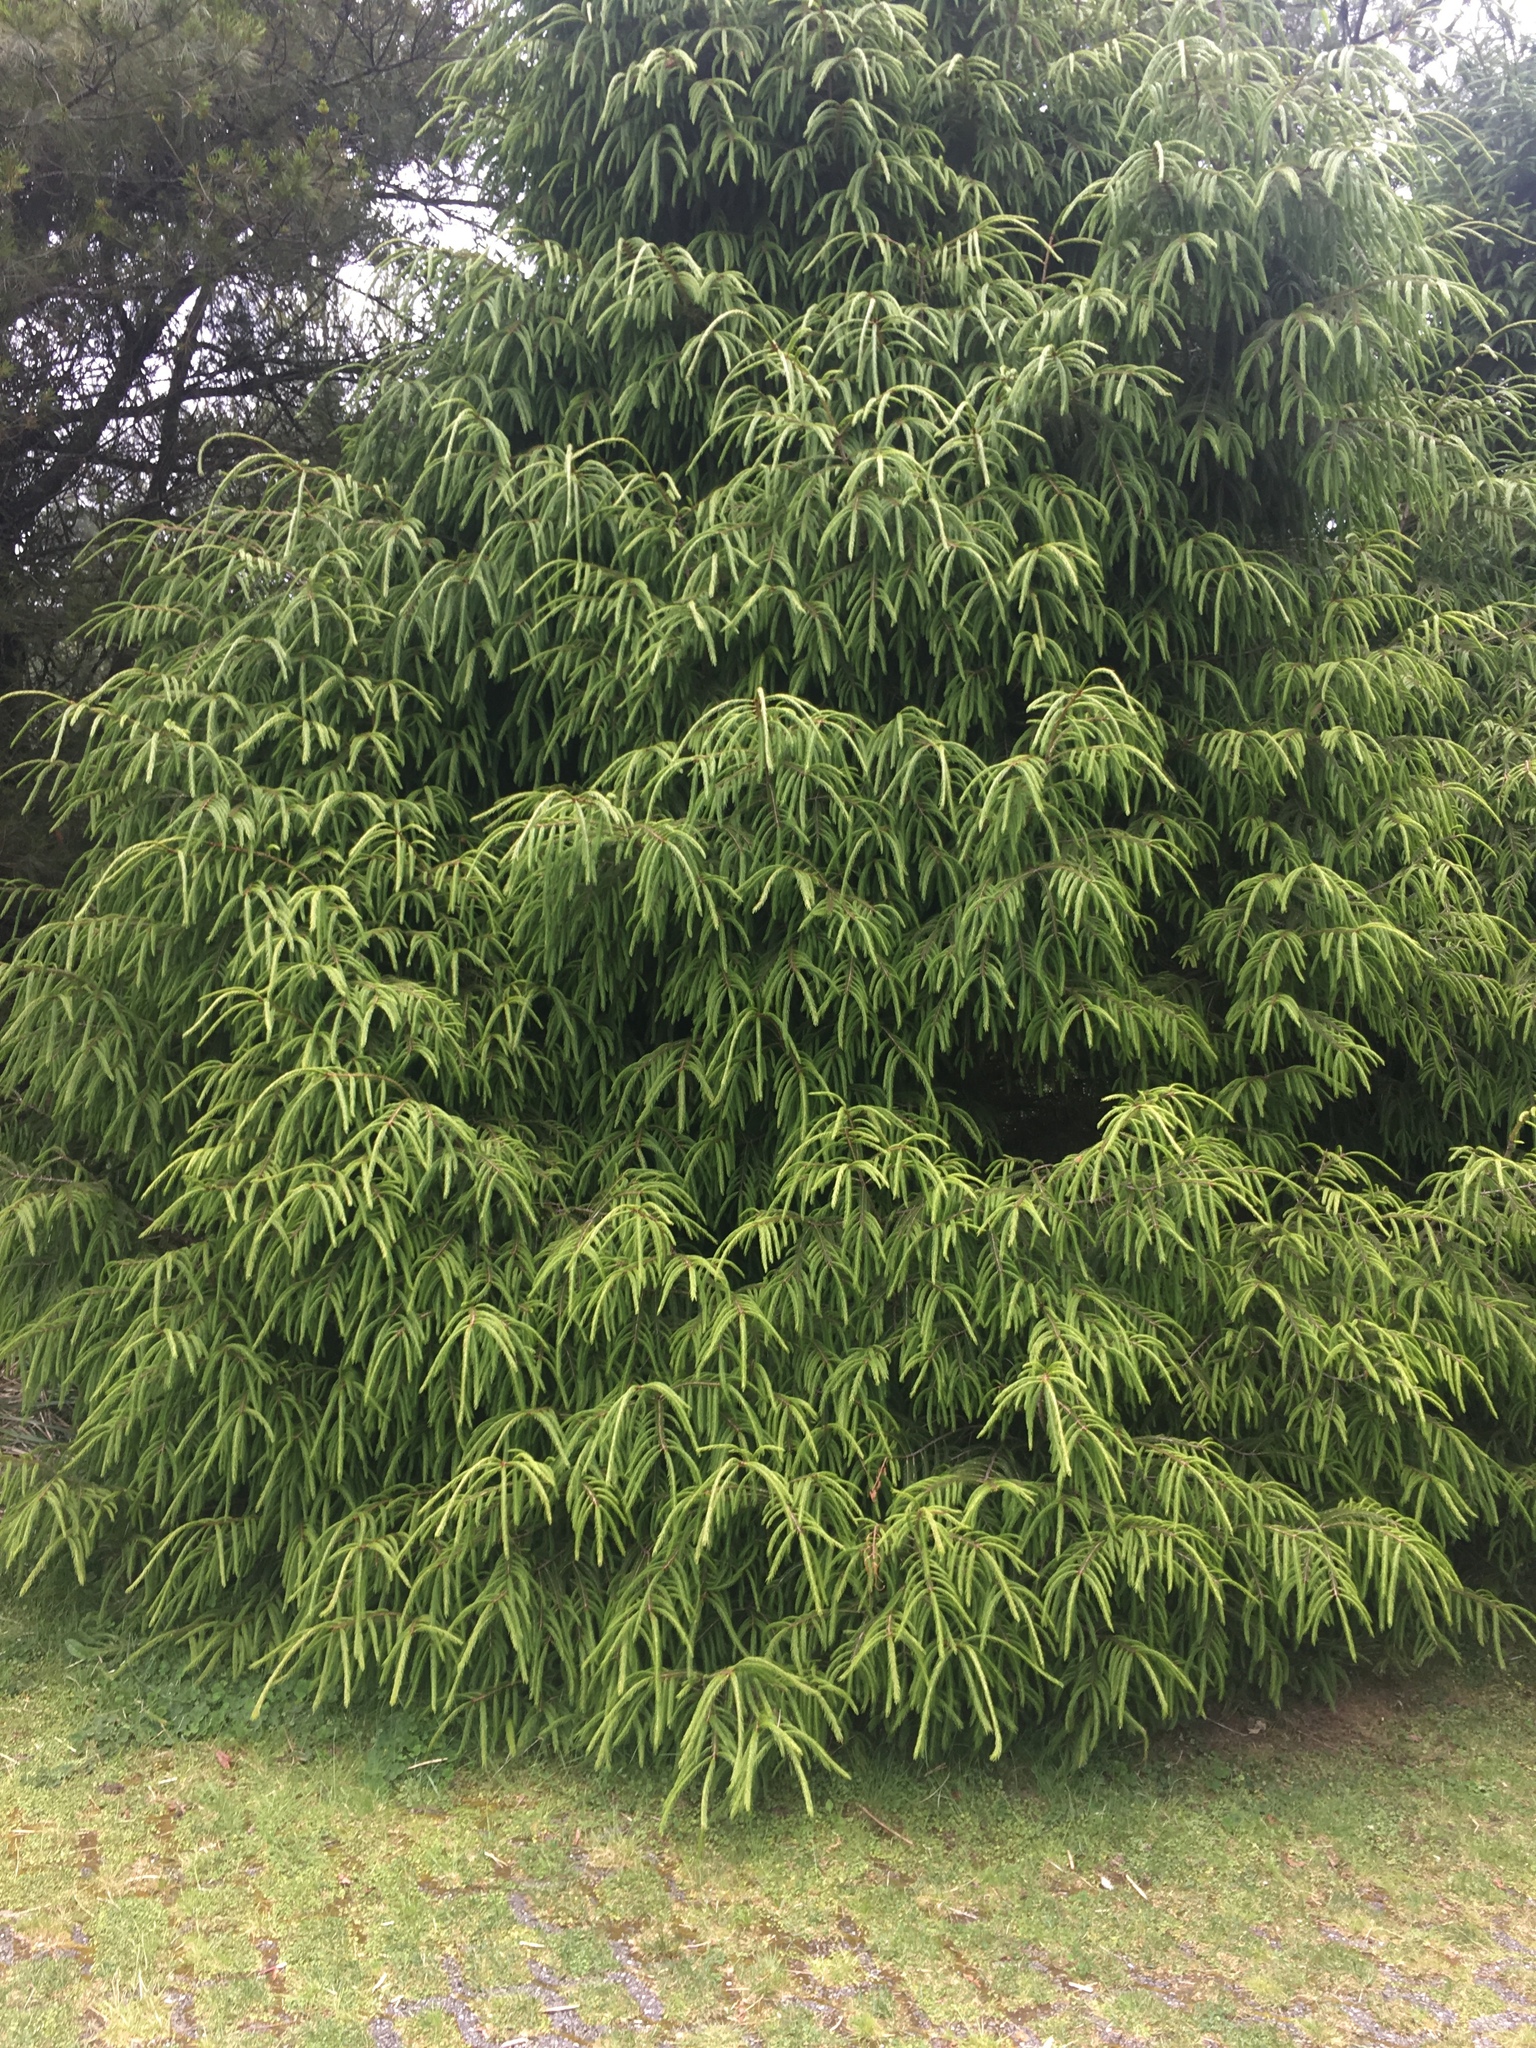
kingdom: Plantae
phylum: Tracheophyta
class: Pinopsida
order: Pinales
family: Pinaceae
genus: Picea
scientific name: Picea morrisonicola
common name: Mount morrison spruce
